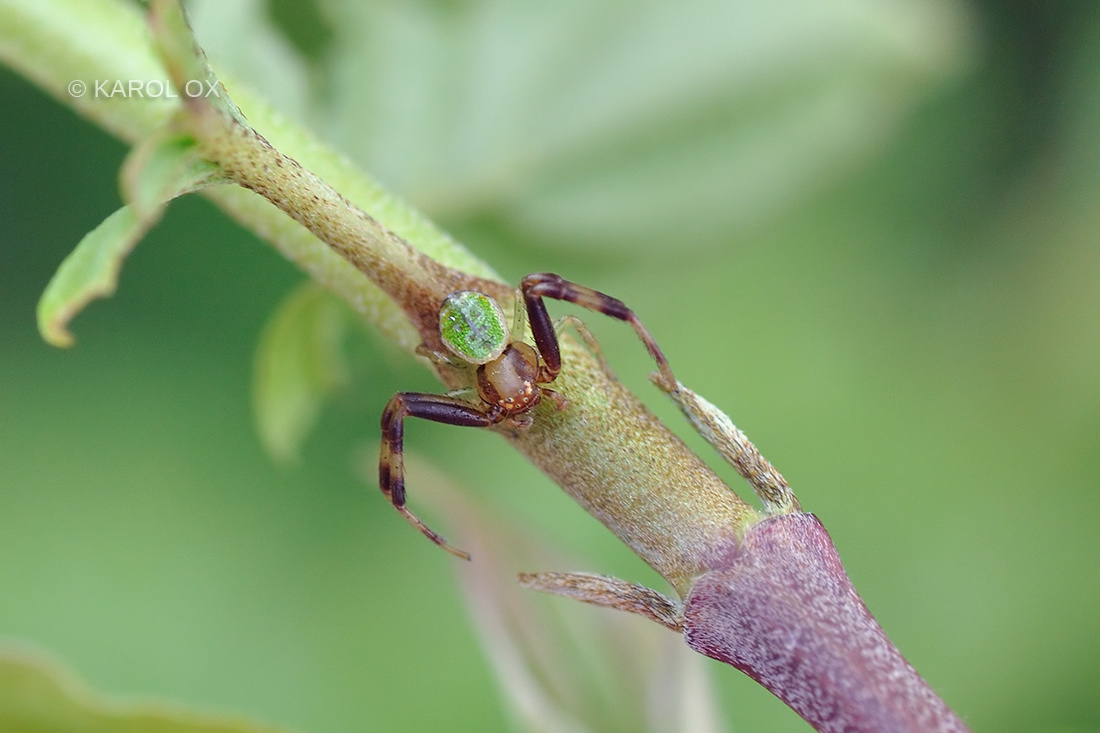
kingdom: Animalia
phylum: Arthropoda
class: Arachnida
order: Araneae
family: Thomisidae
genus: Ebrechtella
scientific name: Ebrechtella tricuspidata
